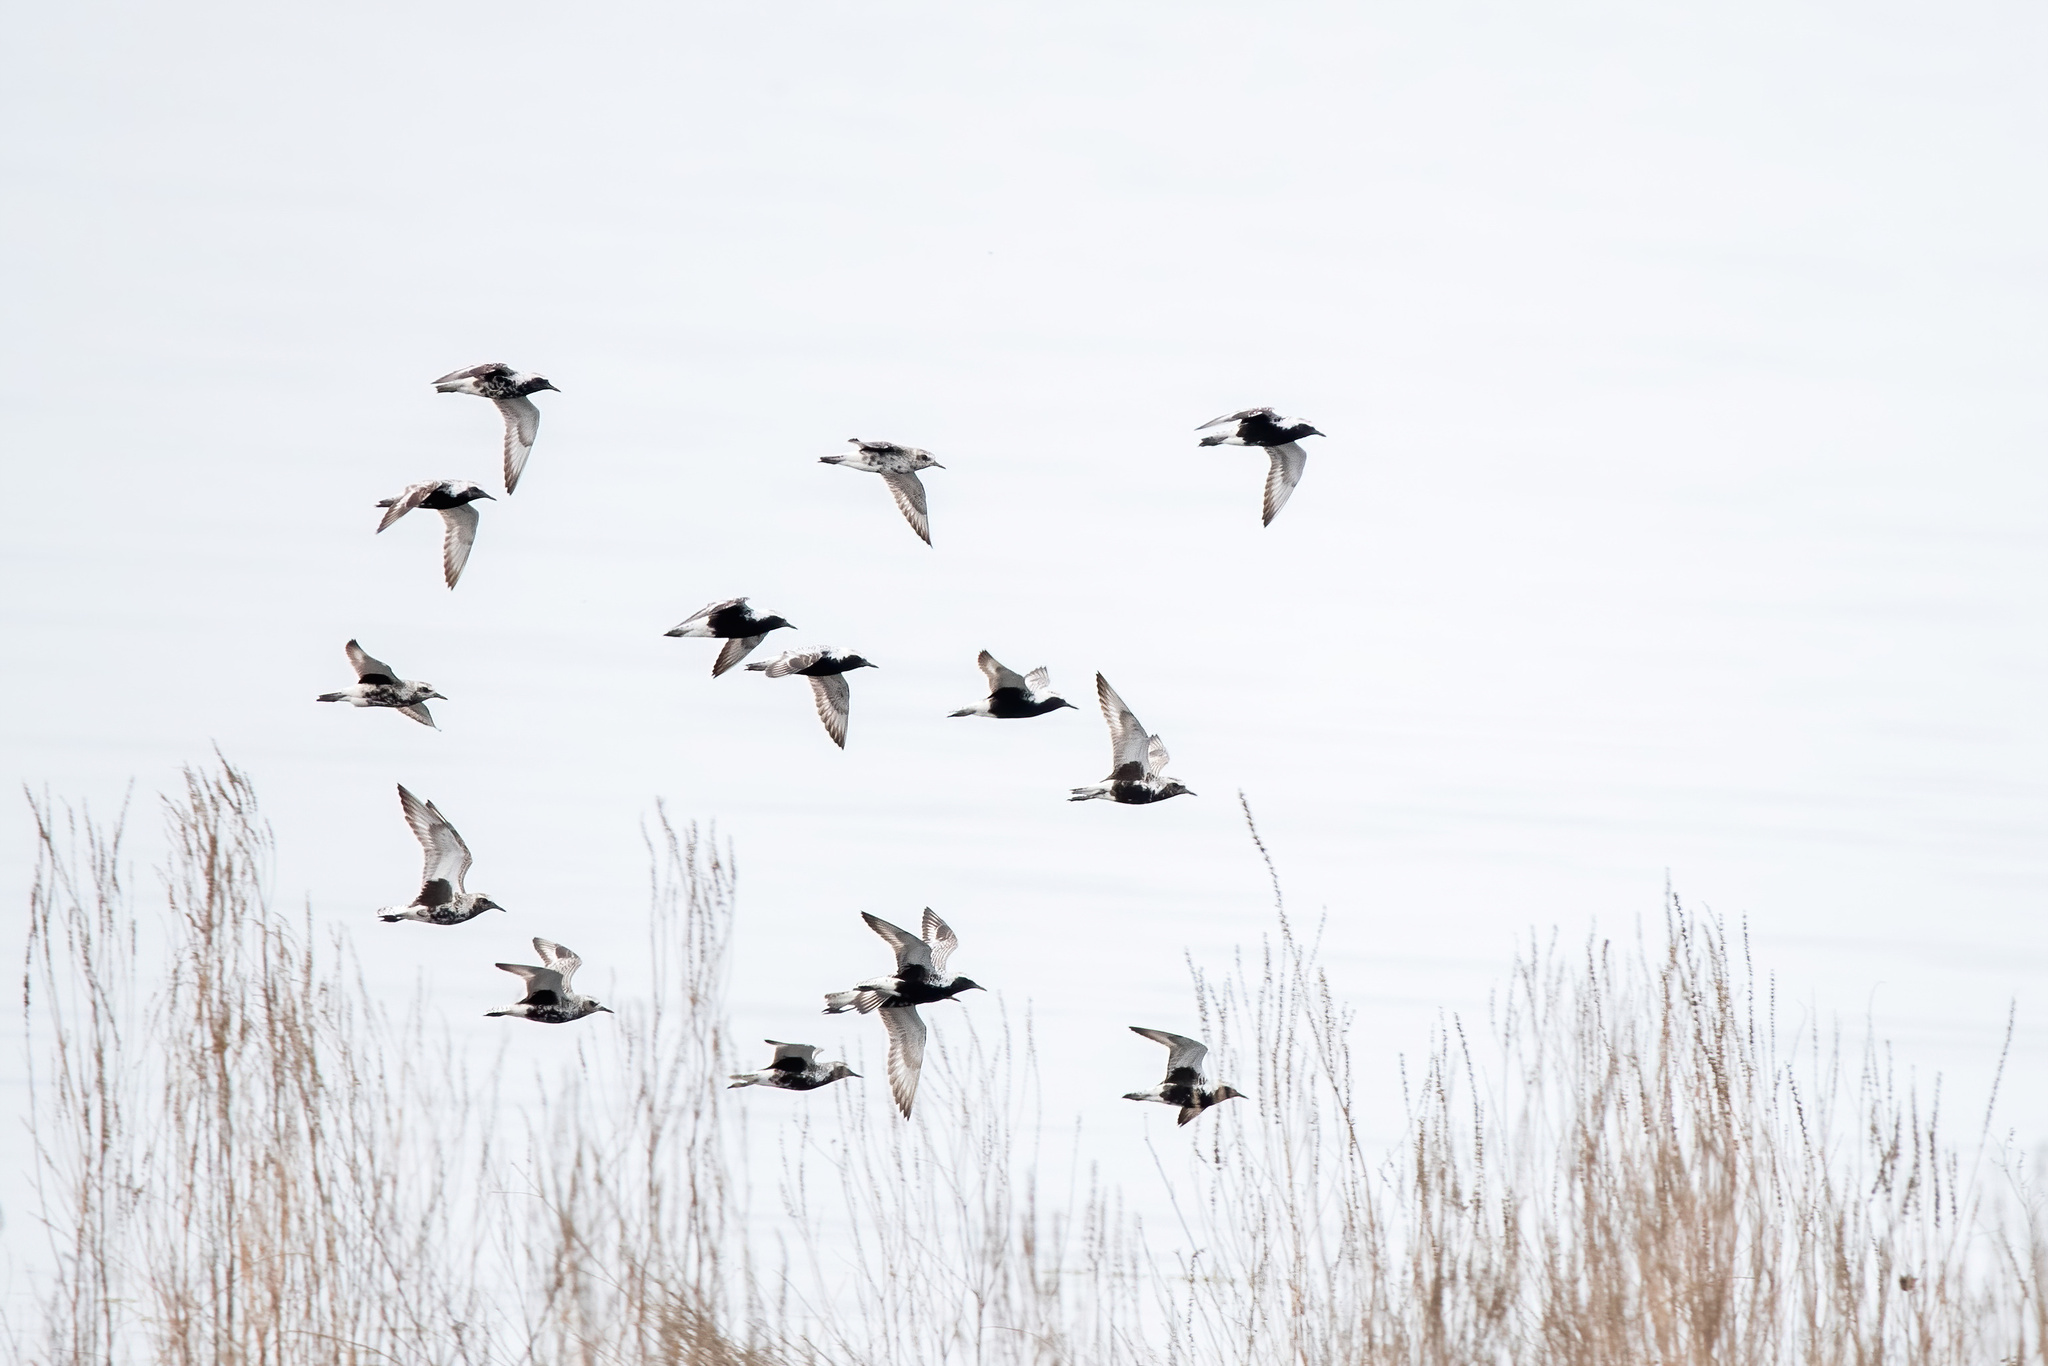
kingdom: Animalia
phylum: Chordata
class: Aves
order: Charadriiformes
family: Charadriidae
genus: Pluvialis
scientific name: Pluvialis squatarola
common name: Grey plover
